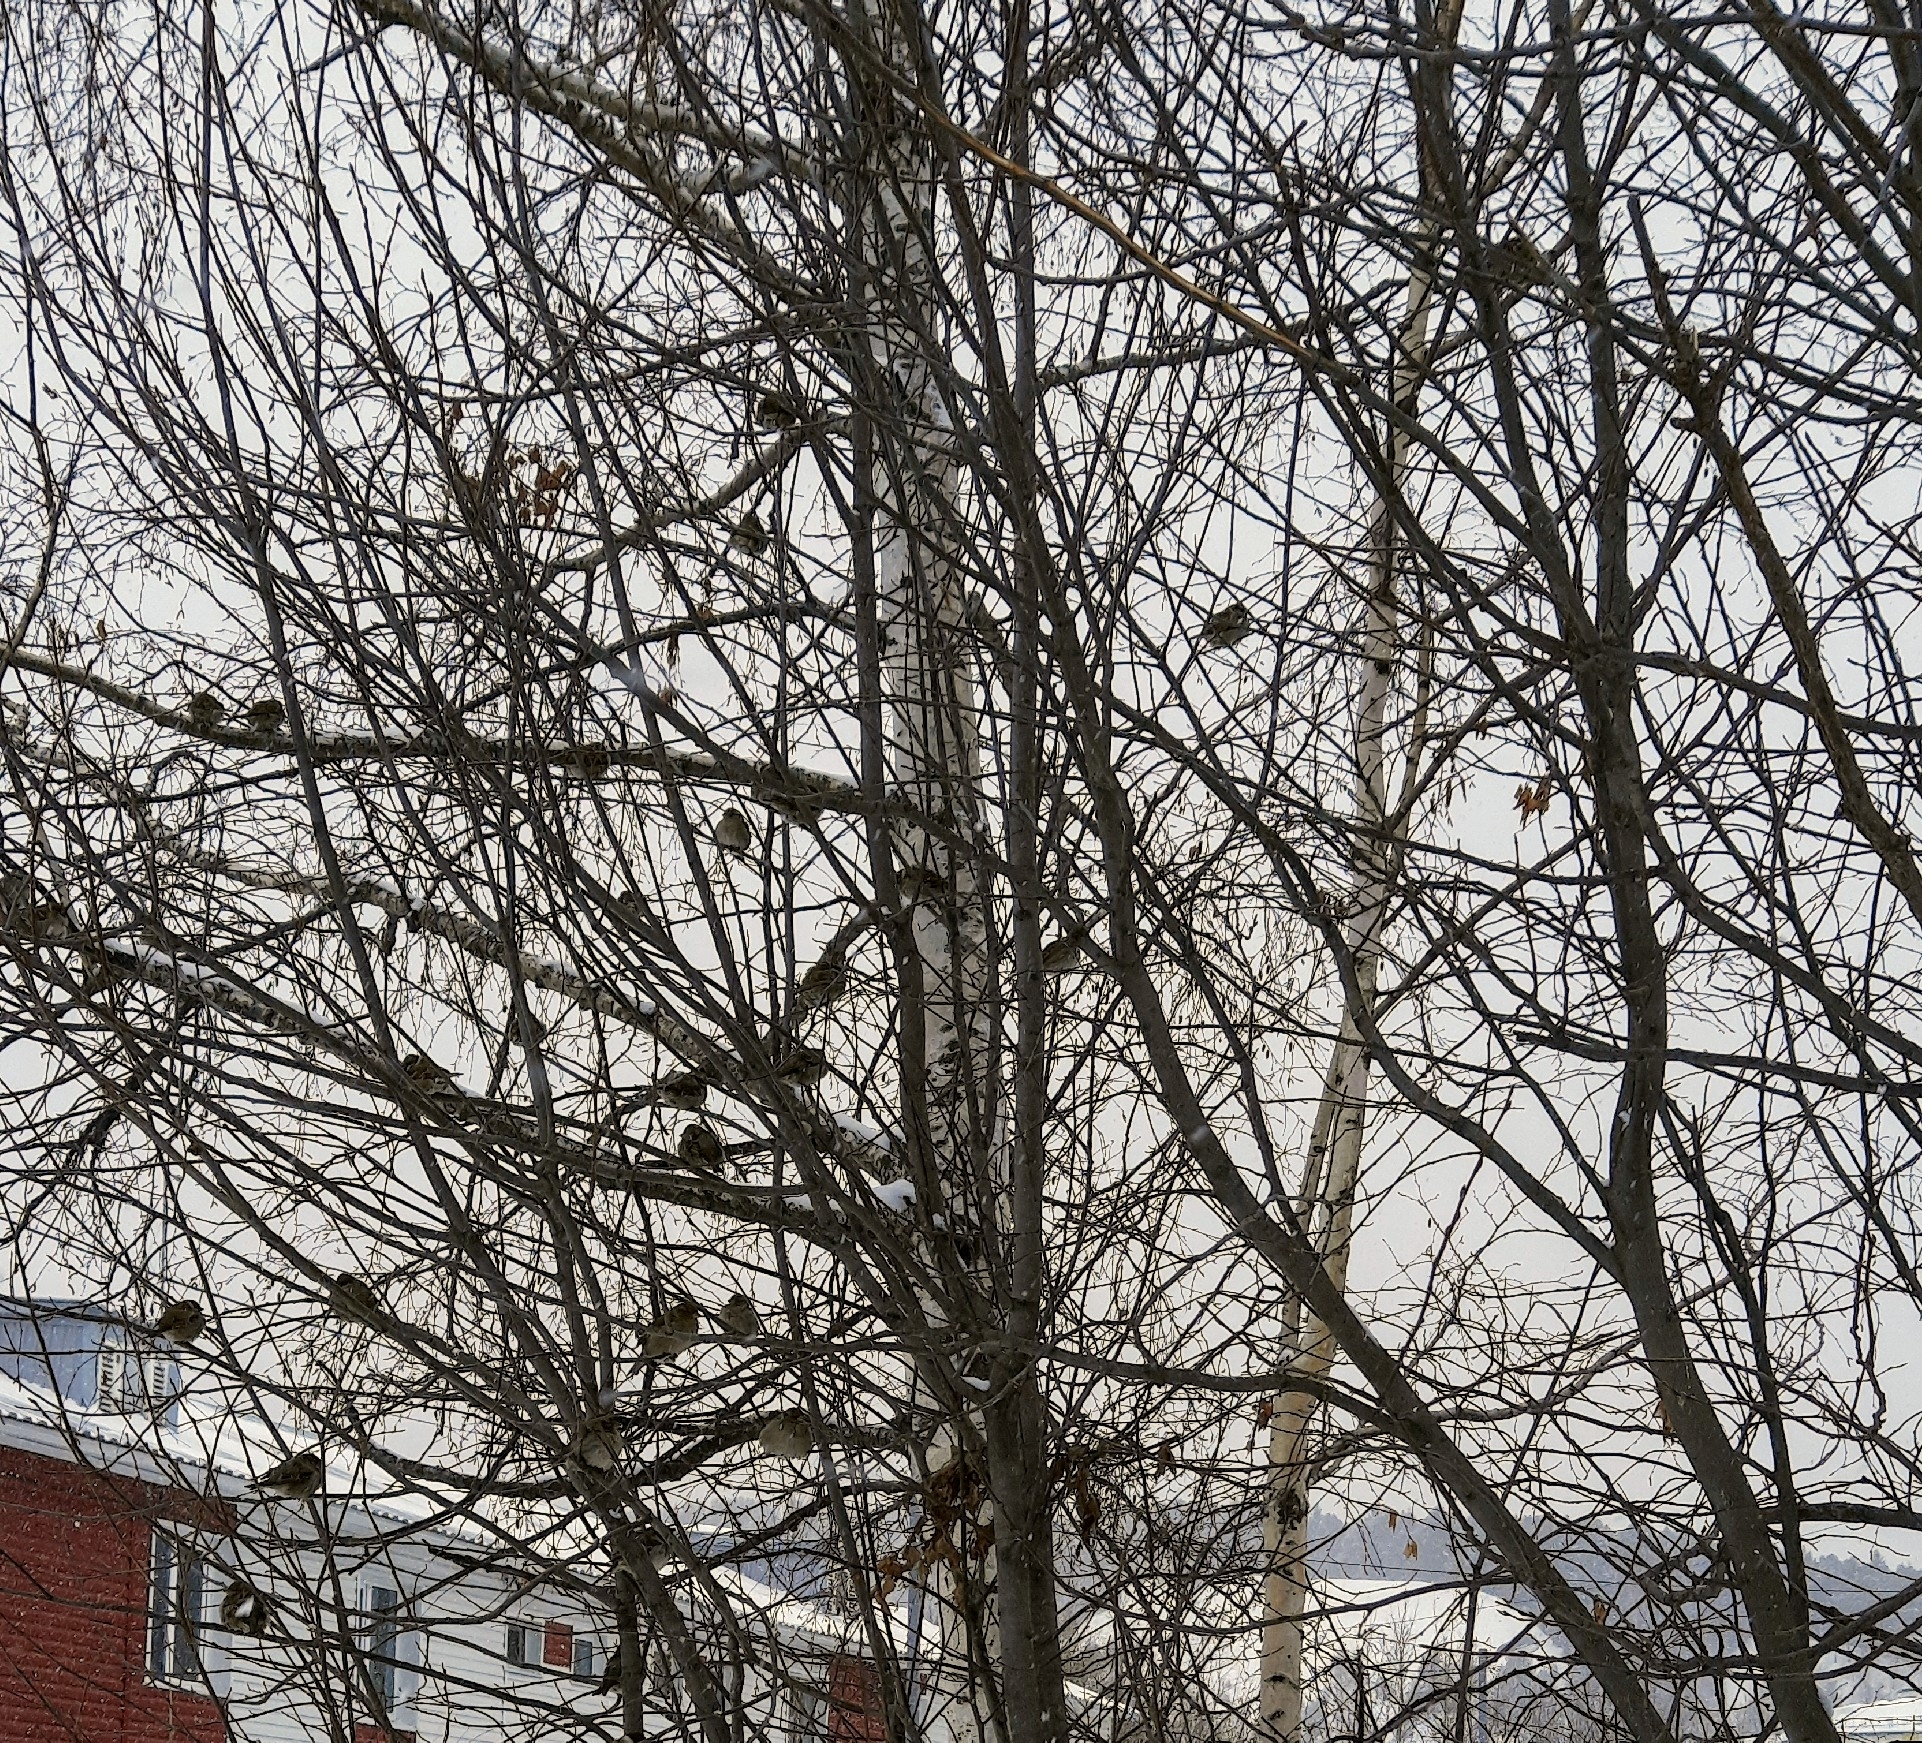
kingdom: Animalia
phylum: Chordata
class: Aves
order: Passeriformes
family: Passeridae
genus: Passer
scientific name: Passer domesticus
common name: House sparrow
